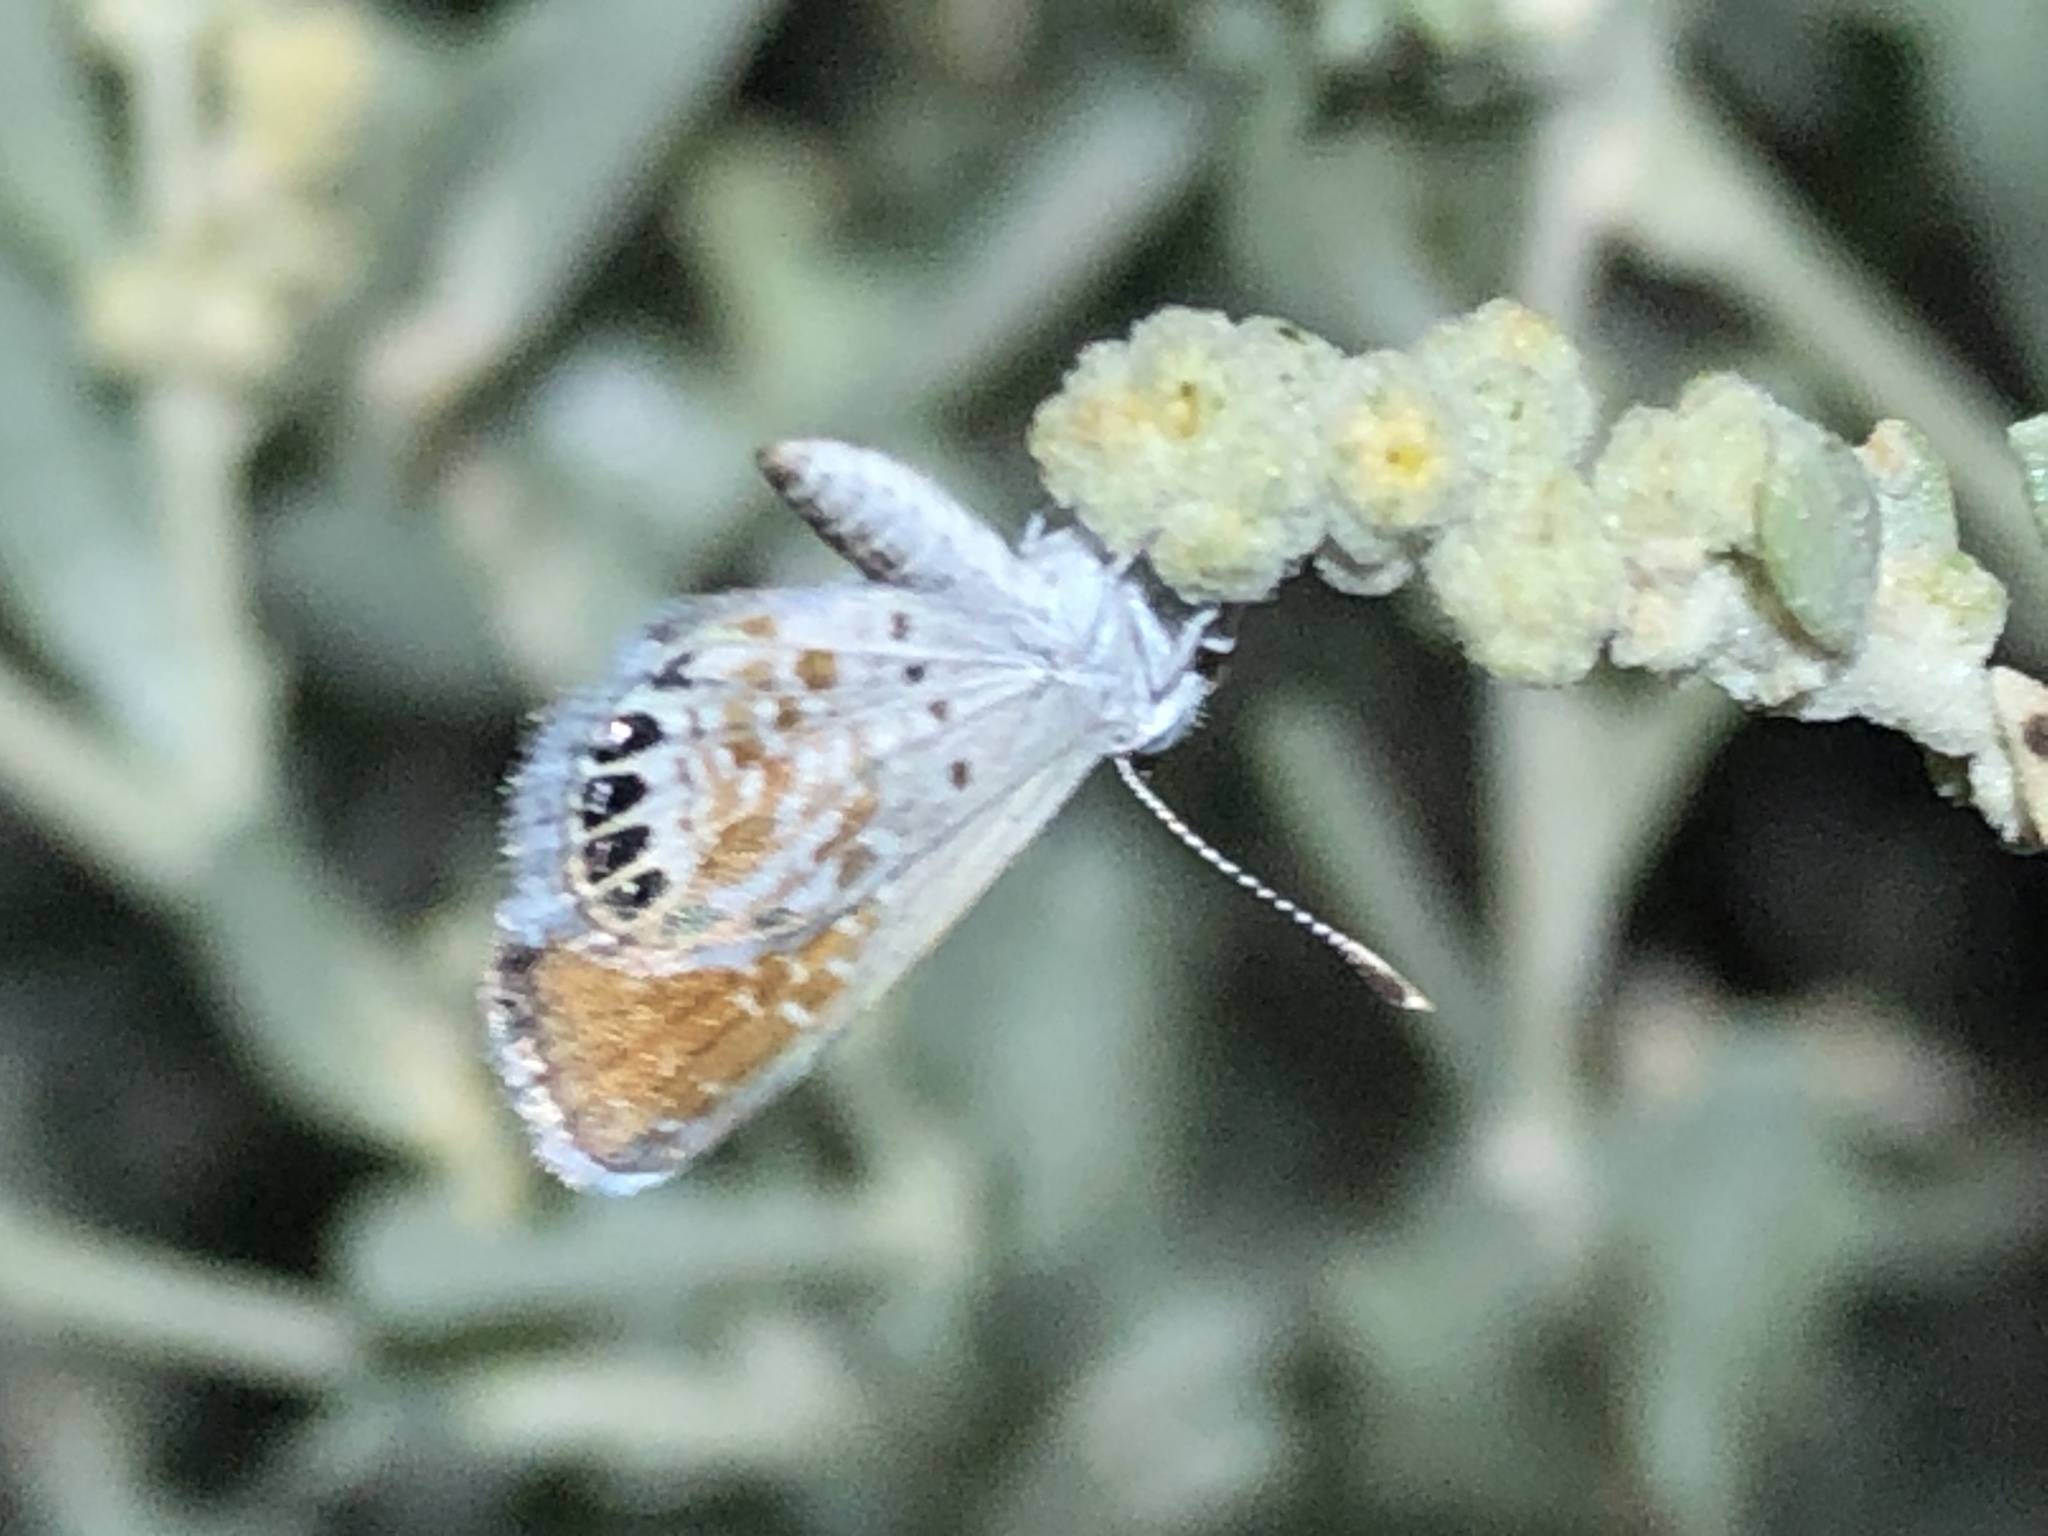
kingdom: Animalia
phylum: Arthropoda
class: Insecta
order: Lepidoptera
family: Lycaenidae
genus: Brephidium
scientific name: Brephidium exilis
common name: Pygmy blue
